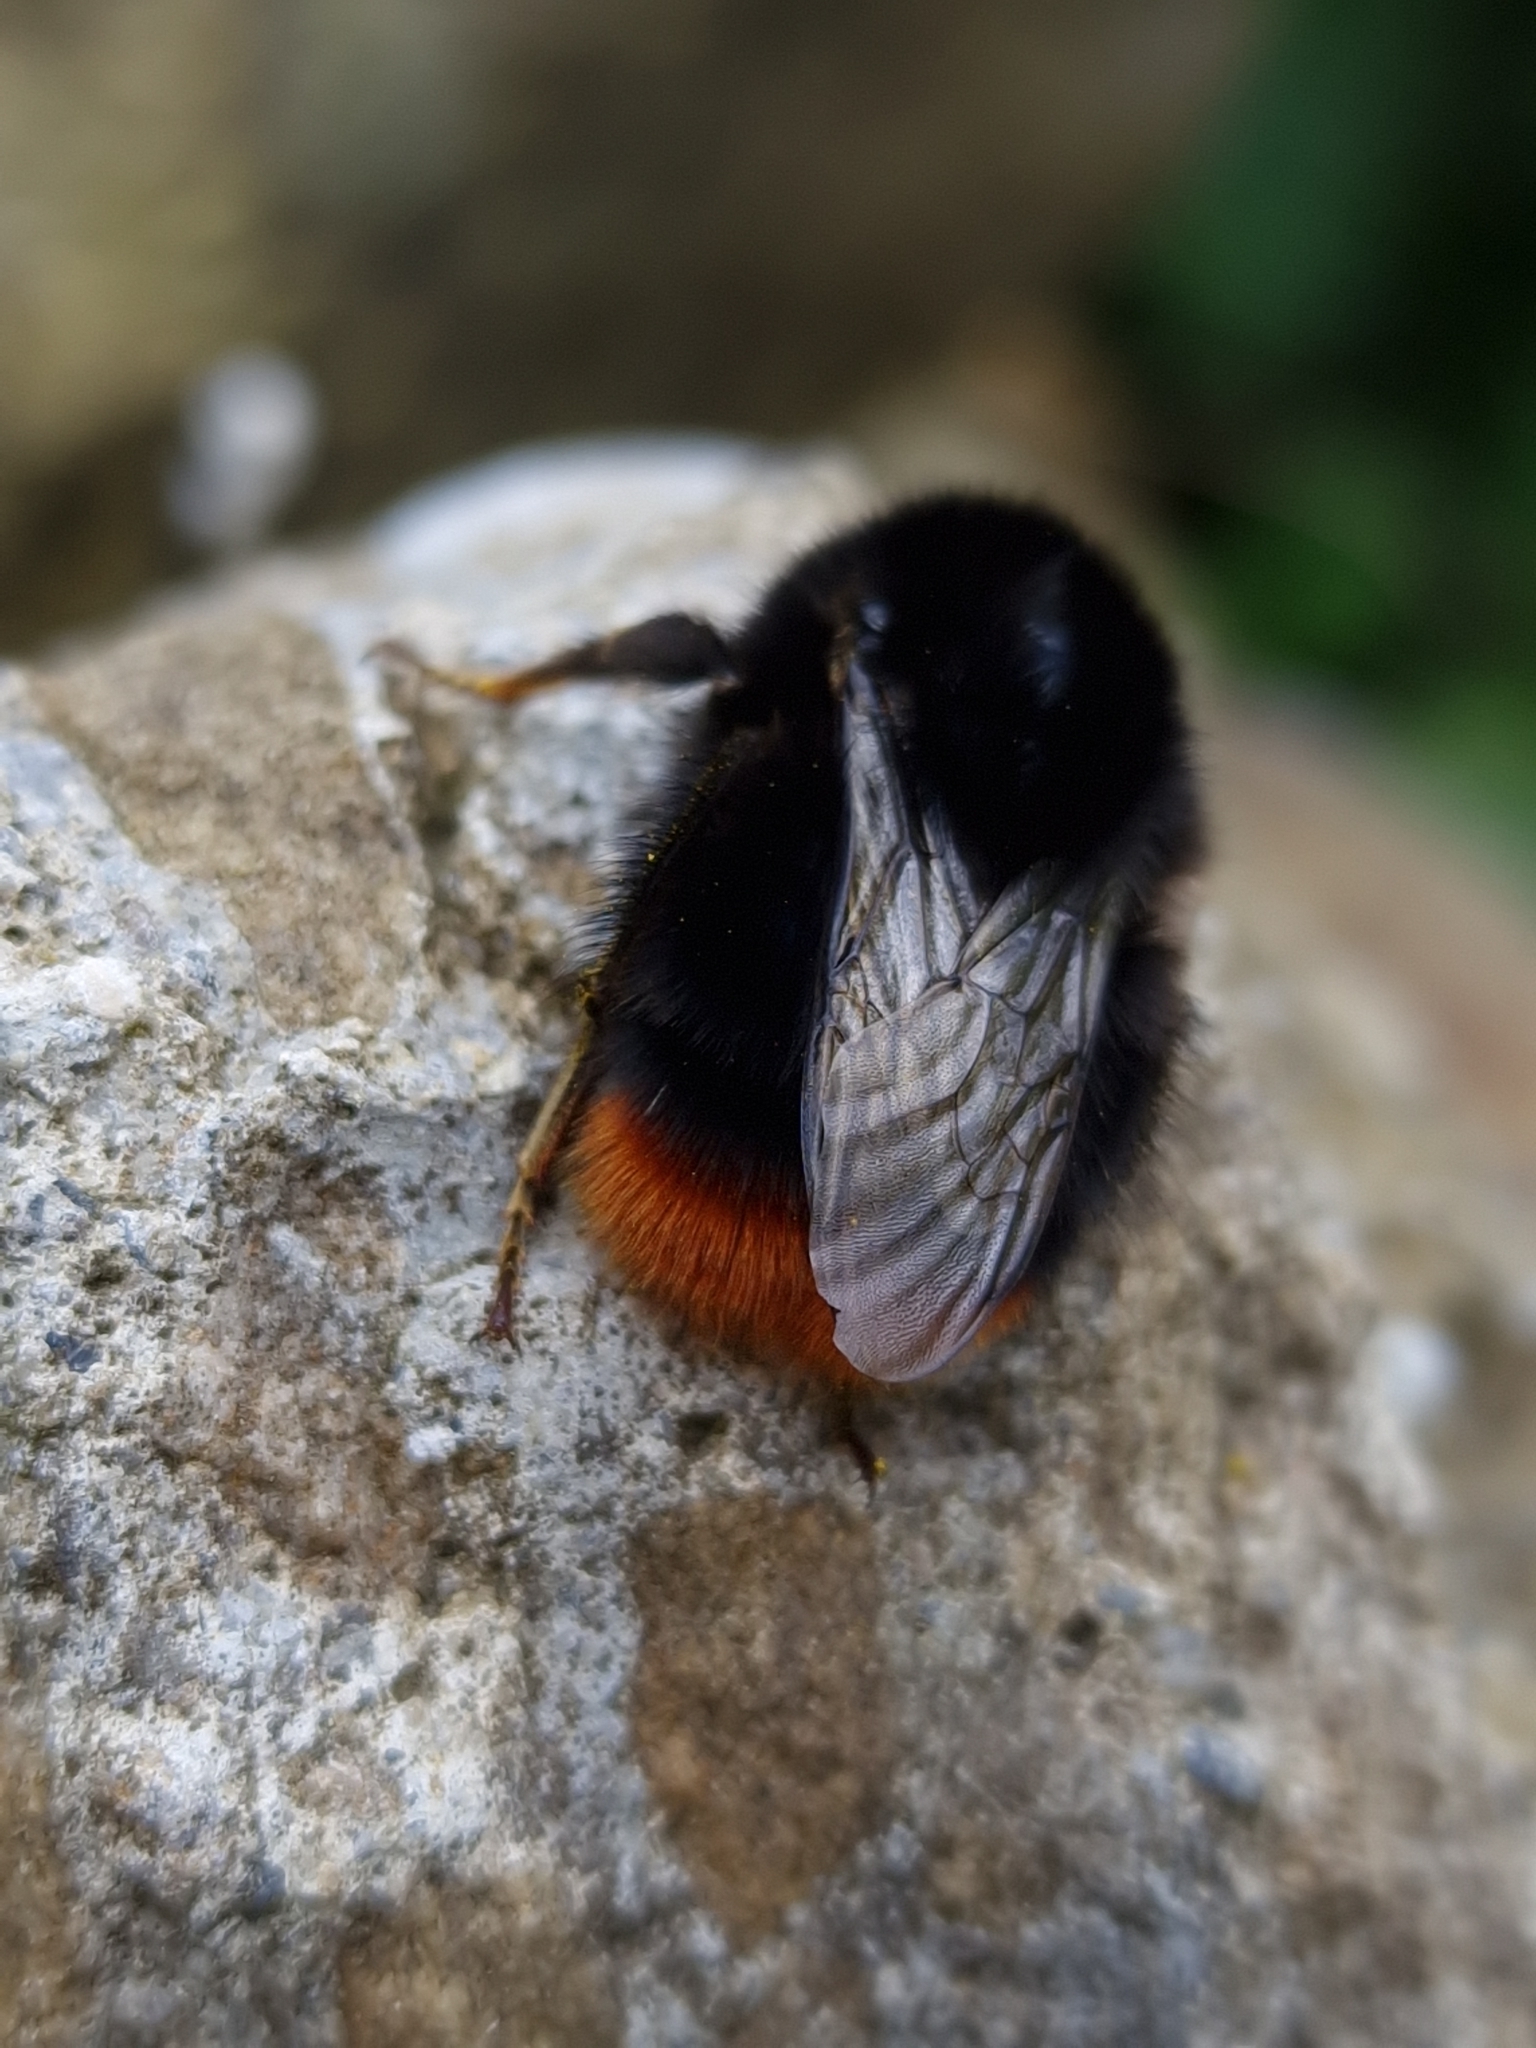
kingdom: Animalia
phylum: Arthropoda
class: Insecta
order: Hymenoptera
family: Apidae
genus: Bombus
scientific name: Bombus lapidarius
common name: Large red-tailed humble-bee
